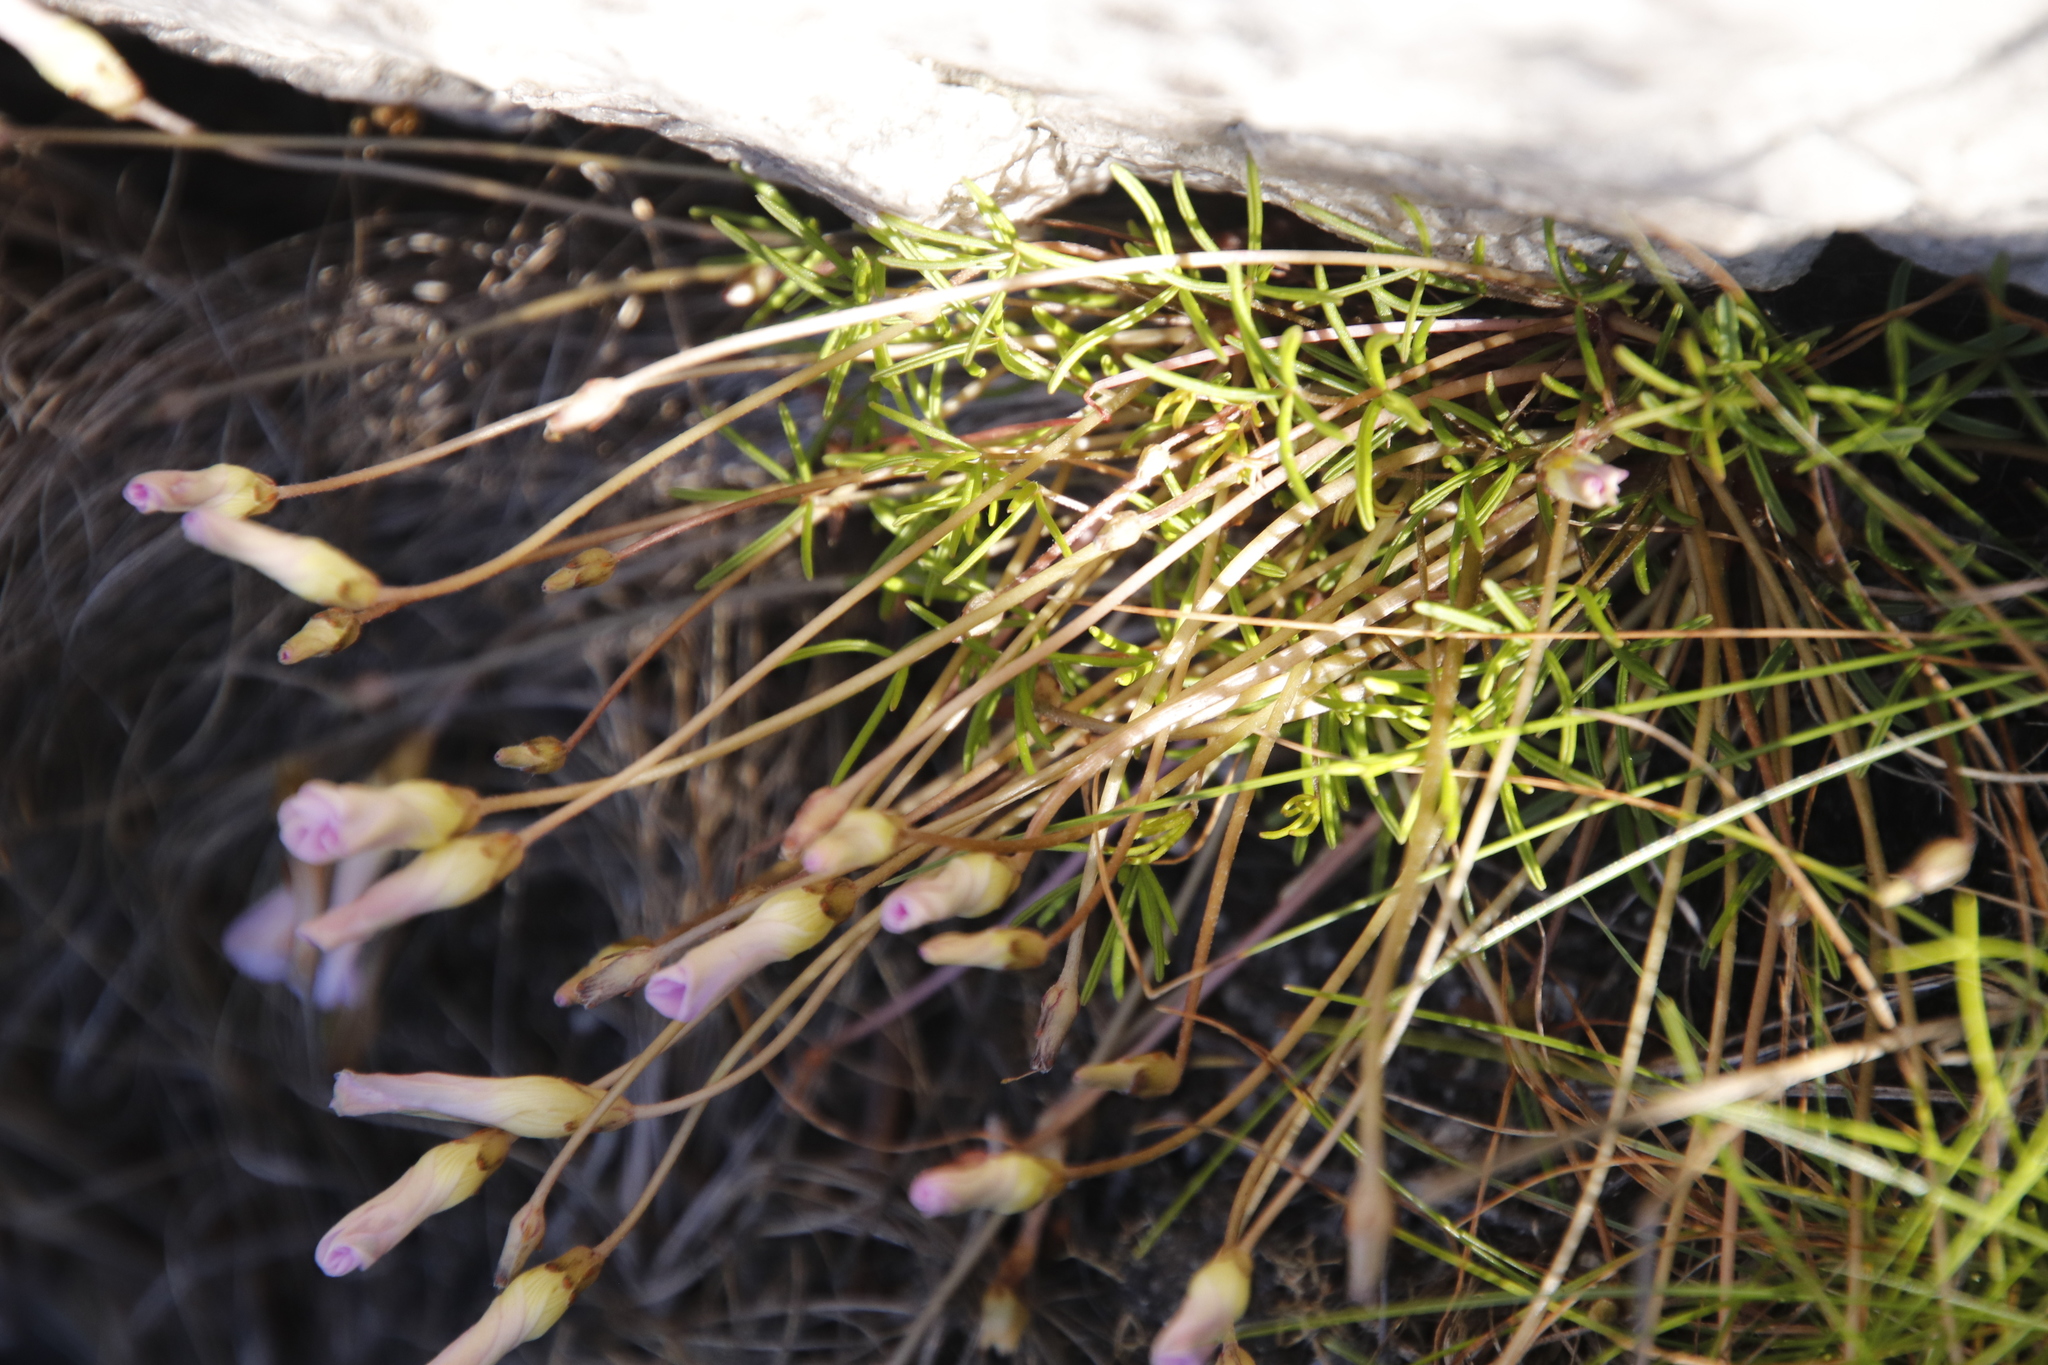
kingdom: Plantae
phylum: Tracheophyta
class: Magnoliopsida
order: Oxalidales
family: Oxalidaceae
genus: Oxalis
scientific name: Oxalis polyphylla
